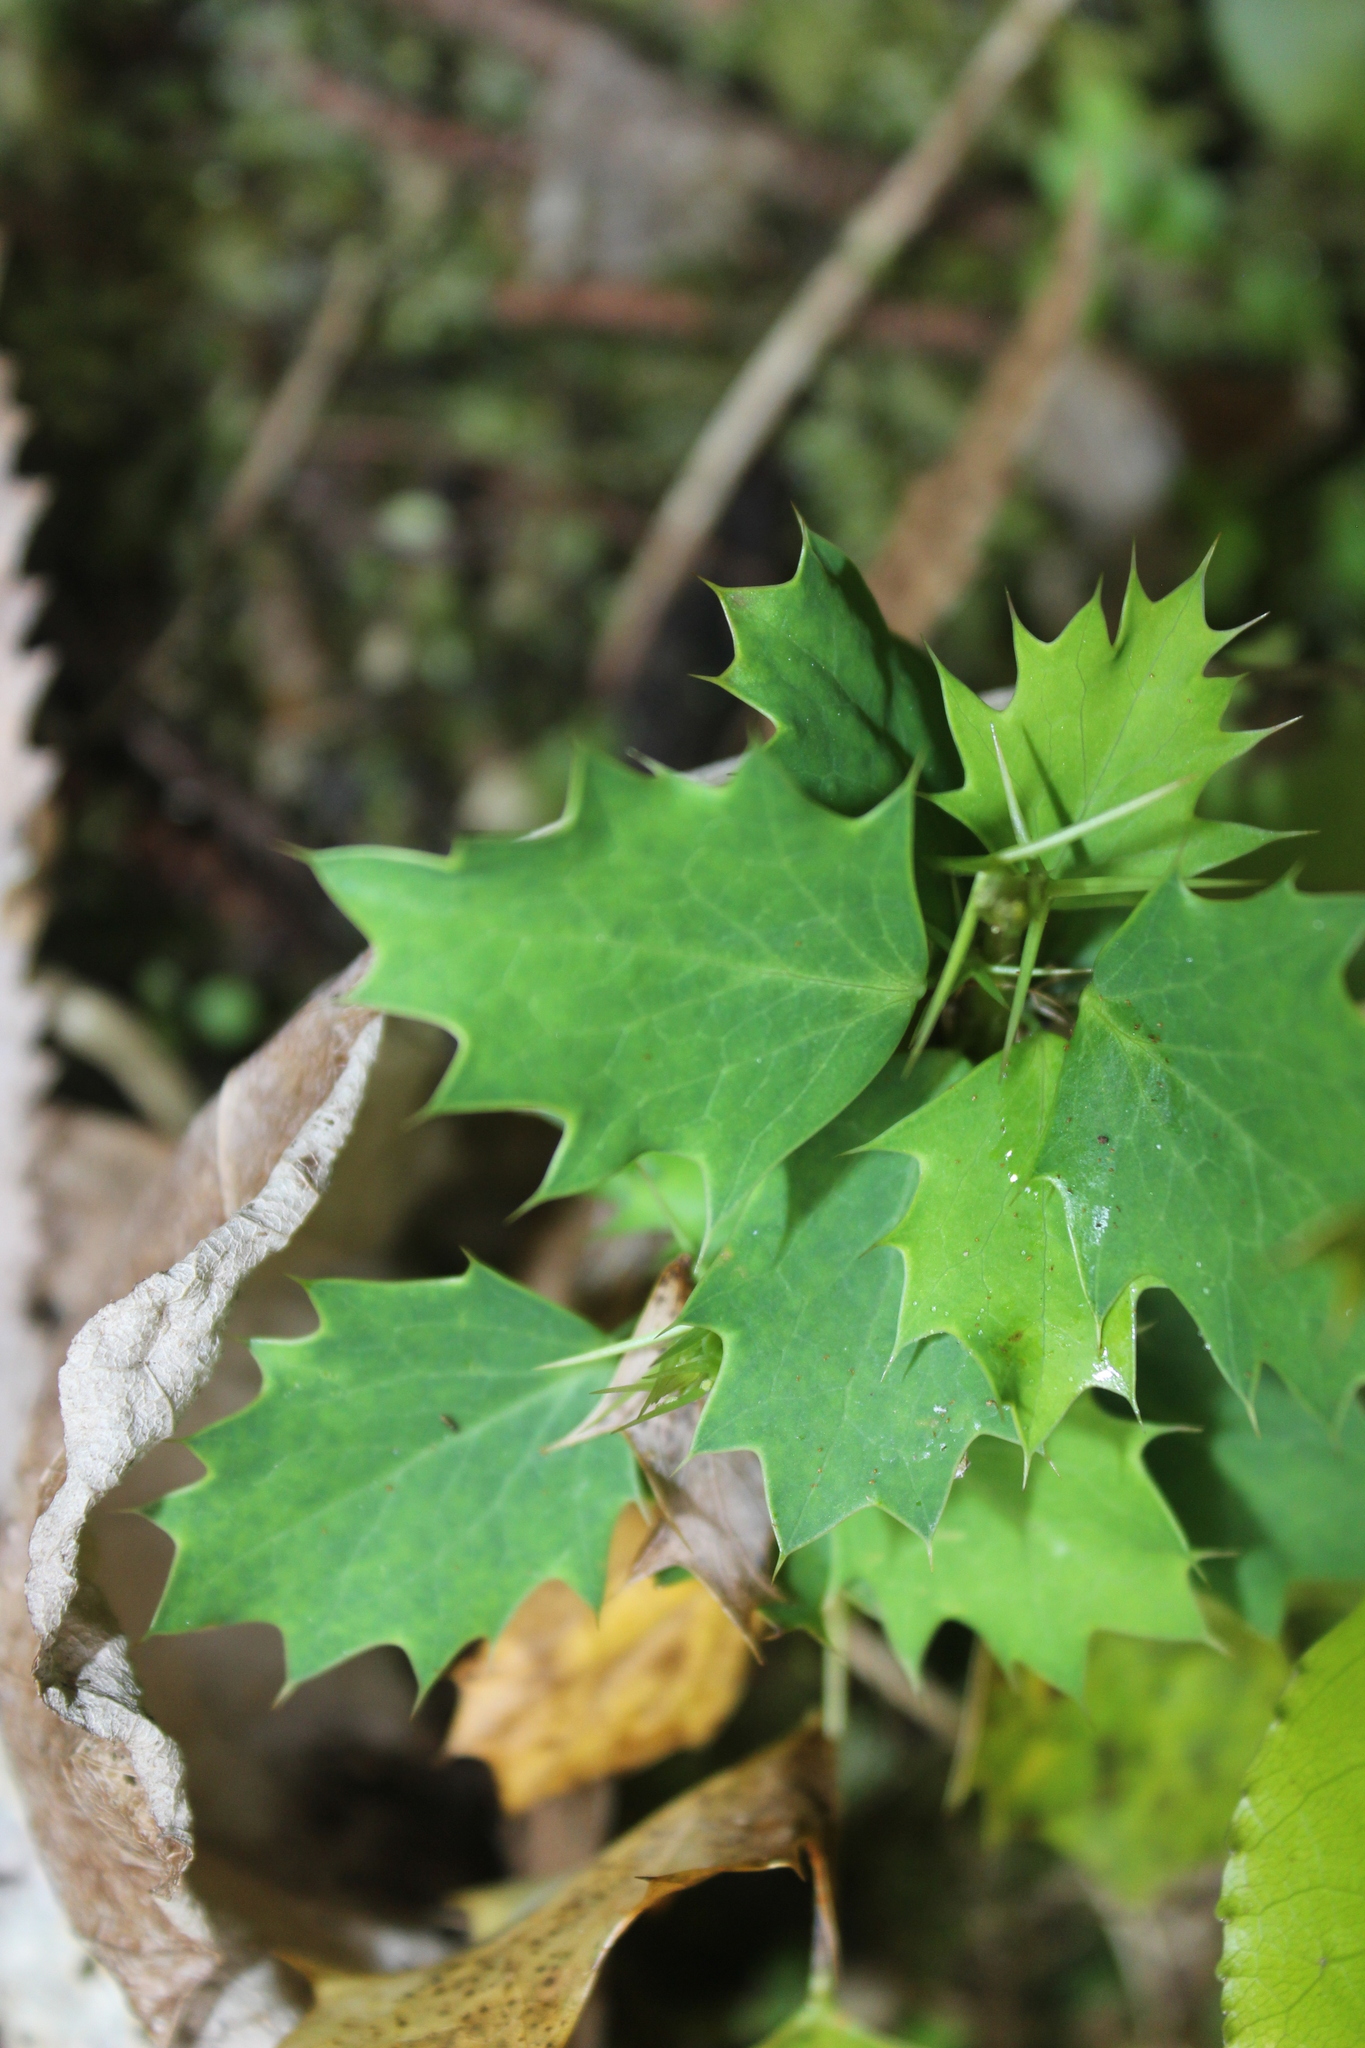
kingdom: Plantae
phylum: Tracheophyta
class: Magnoliopsida
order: Ranunculales
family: Berberidaceae
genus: Berberis
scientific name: Berberis glaucocarpa
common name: Great barberry
